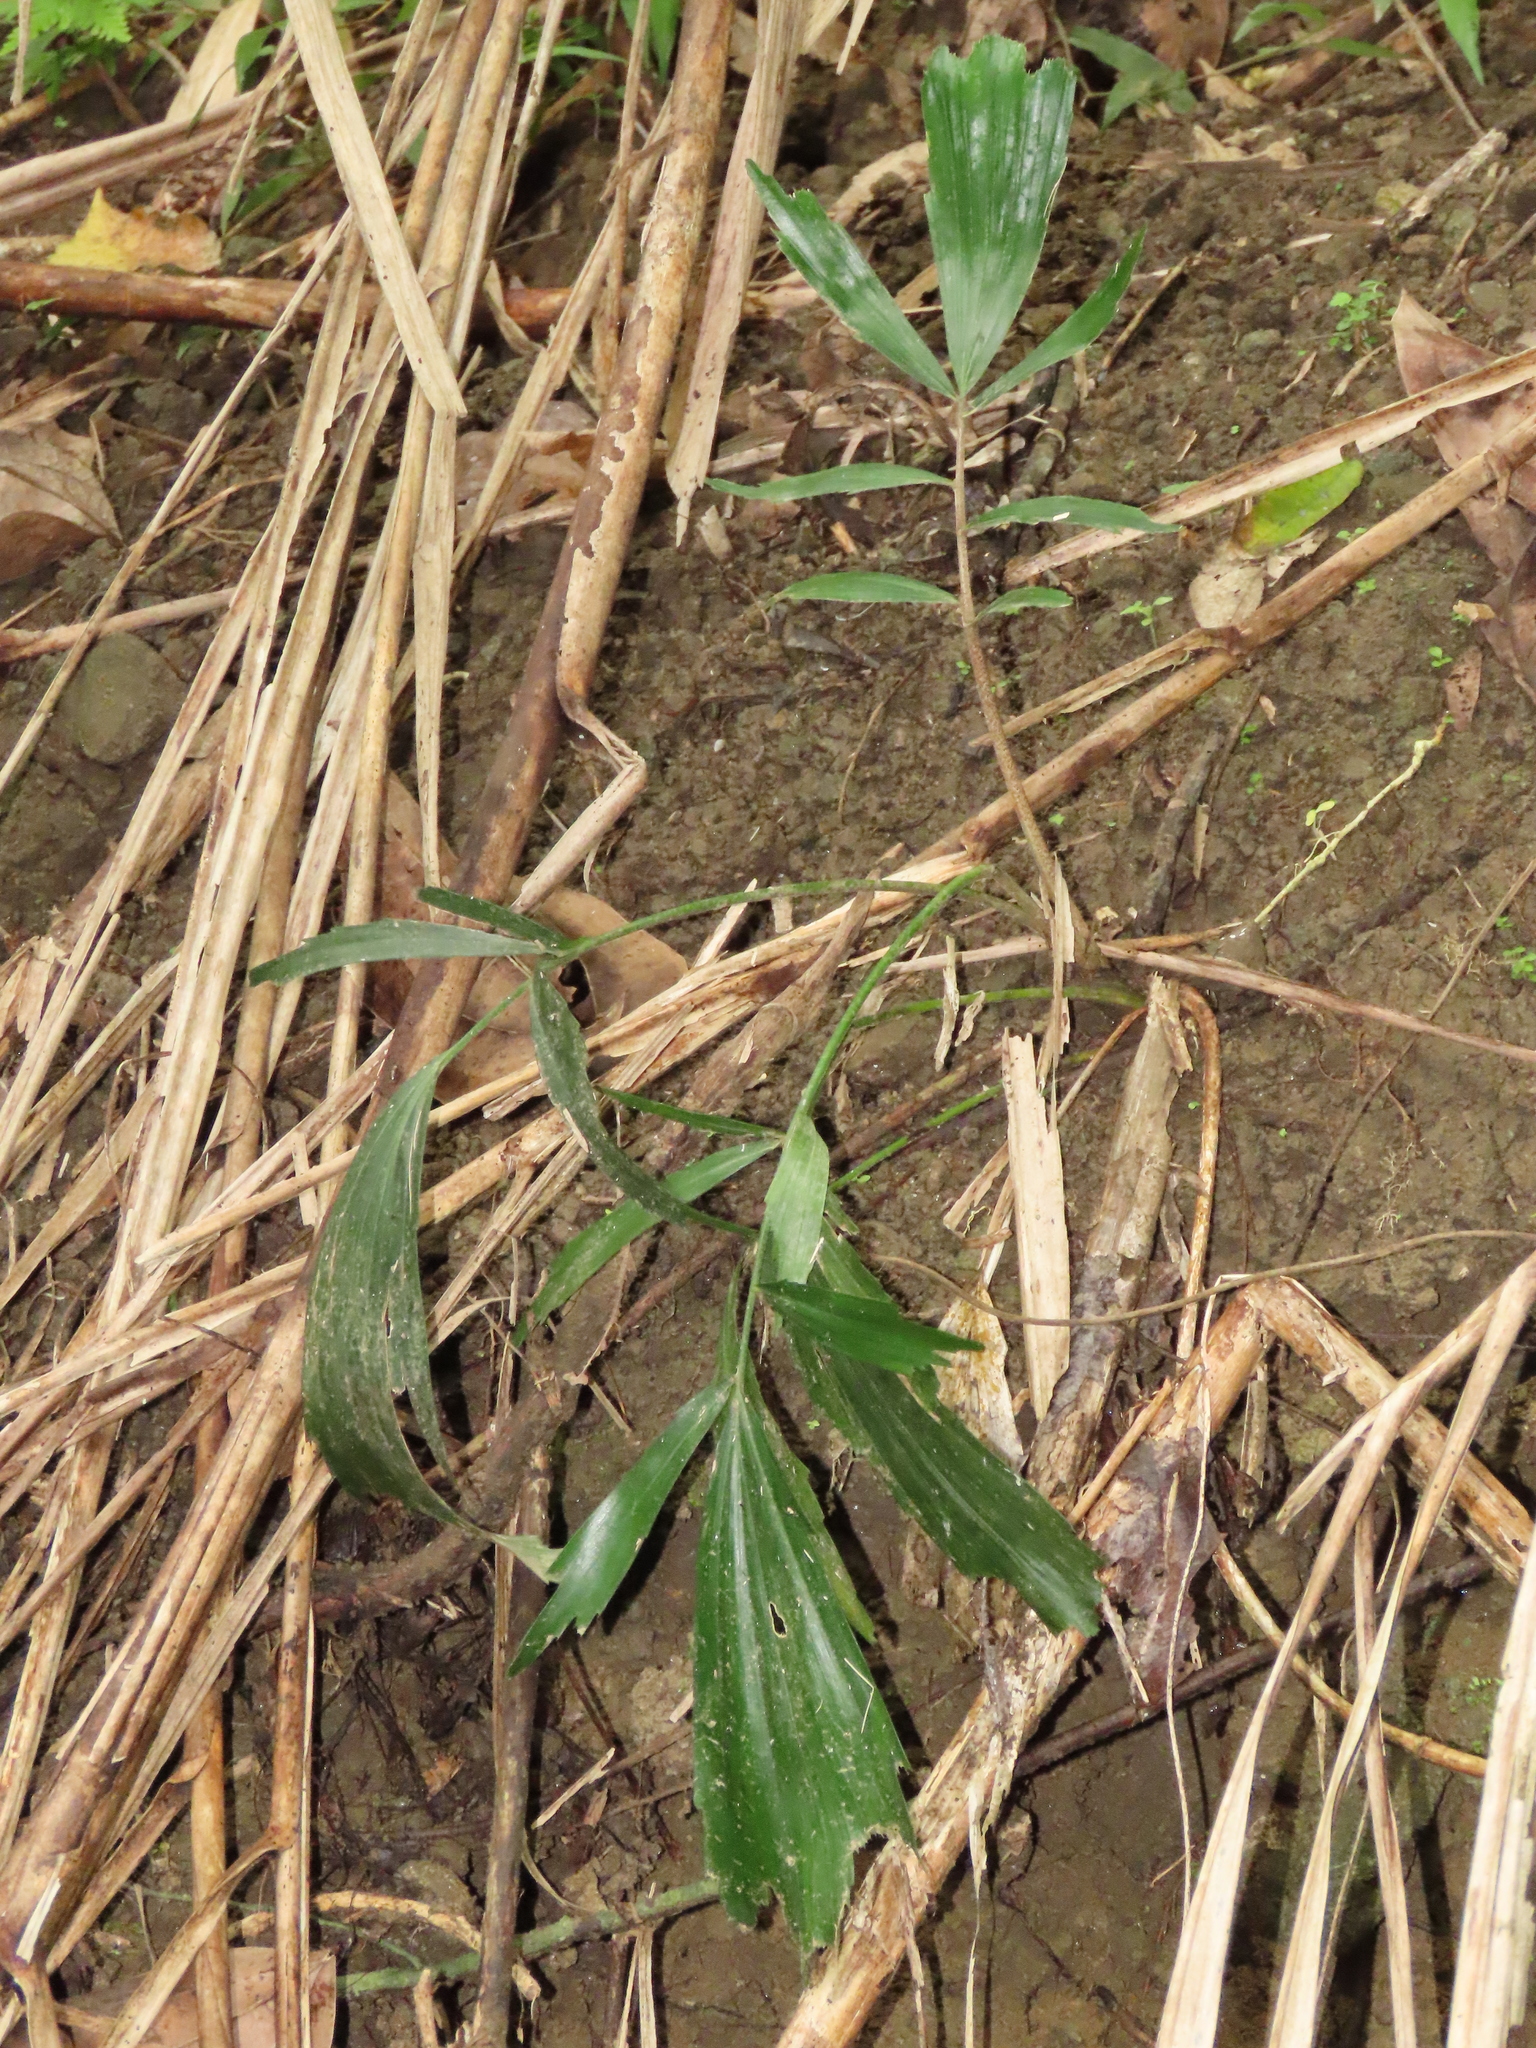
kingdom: Plantae
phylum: Tracheophyta
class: Liliopsida
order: Arecales
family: Arecaceae
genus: Arenga
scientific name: Arenga engleri
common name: Formosan sugar palm
